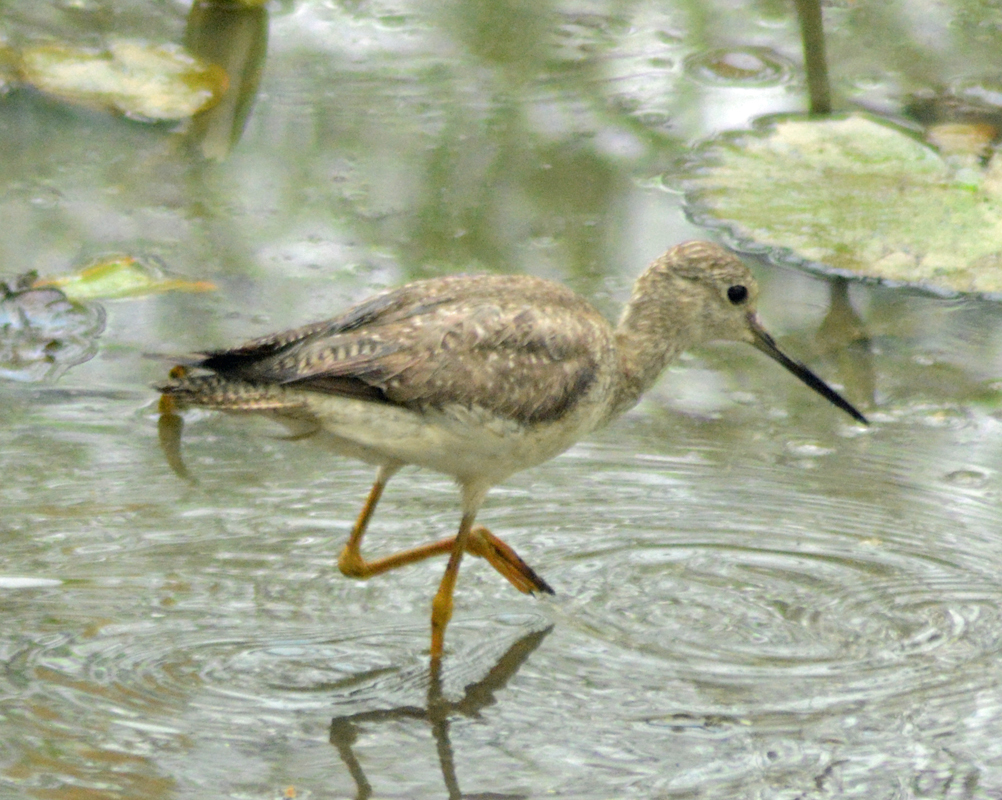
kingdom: Animalia
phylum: Chordata
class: Aves
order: Charadriiformes
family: Scolopacidae
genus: Tringa
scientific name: Tringa melanoleuca
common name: Greater yellowlegs
